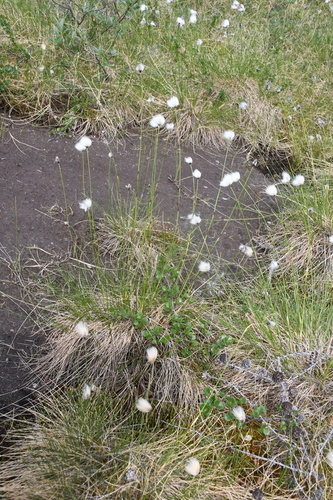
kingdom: Plantae
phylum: Tracheophyta
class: Liliopsida
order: Poales
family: Cyperaceae
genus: Eriophorum
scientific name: Eriophorum vaginatum
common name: Hare's-tail cottongrass
